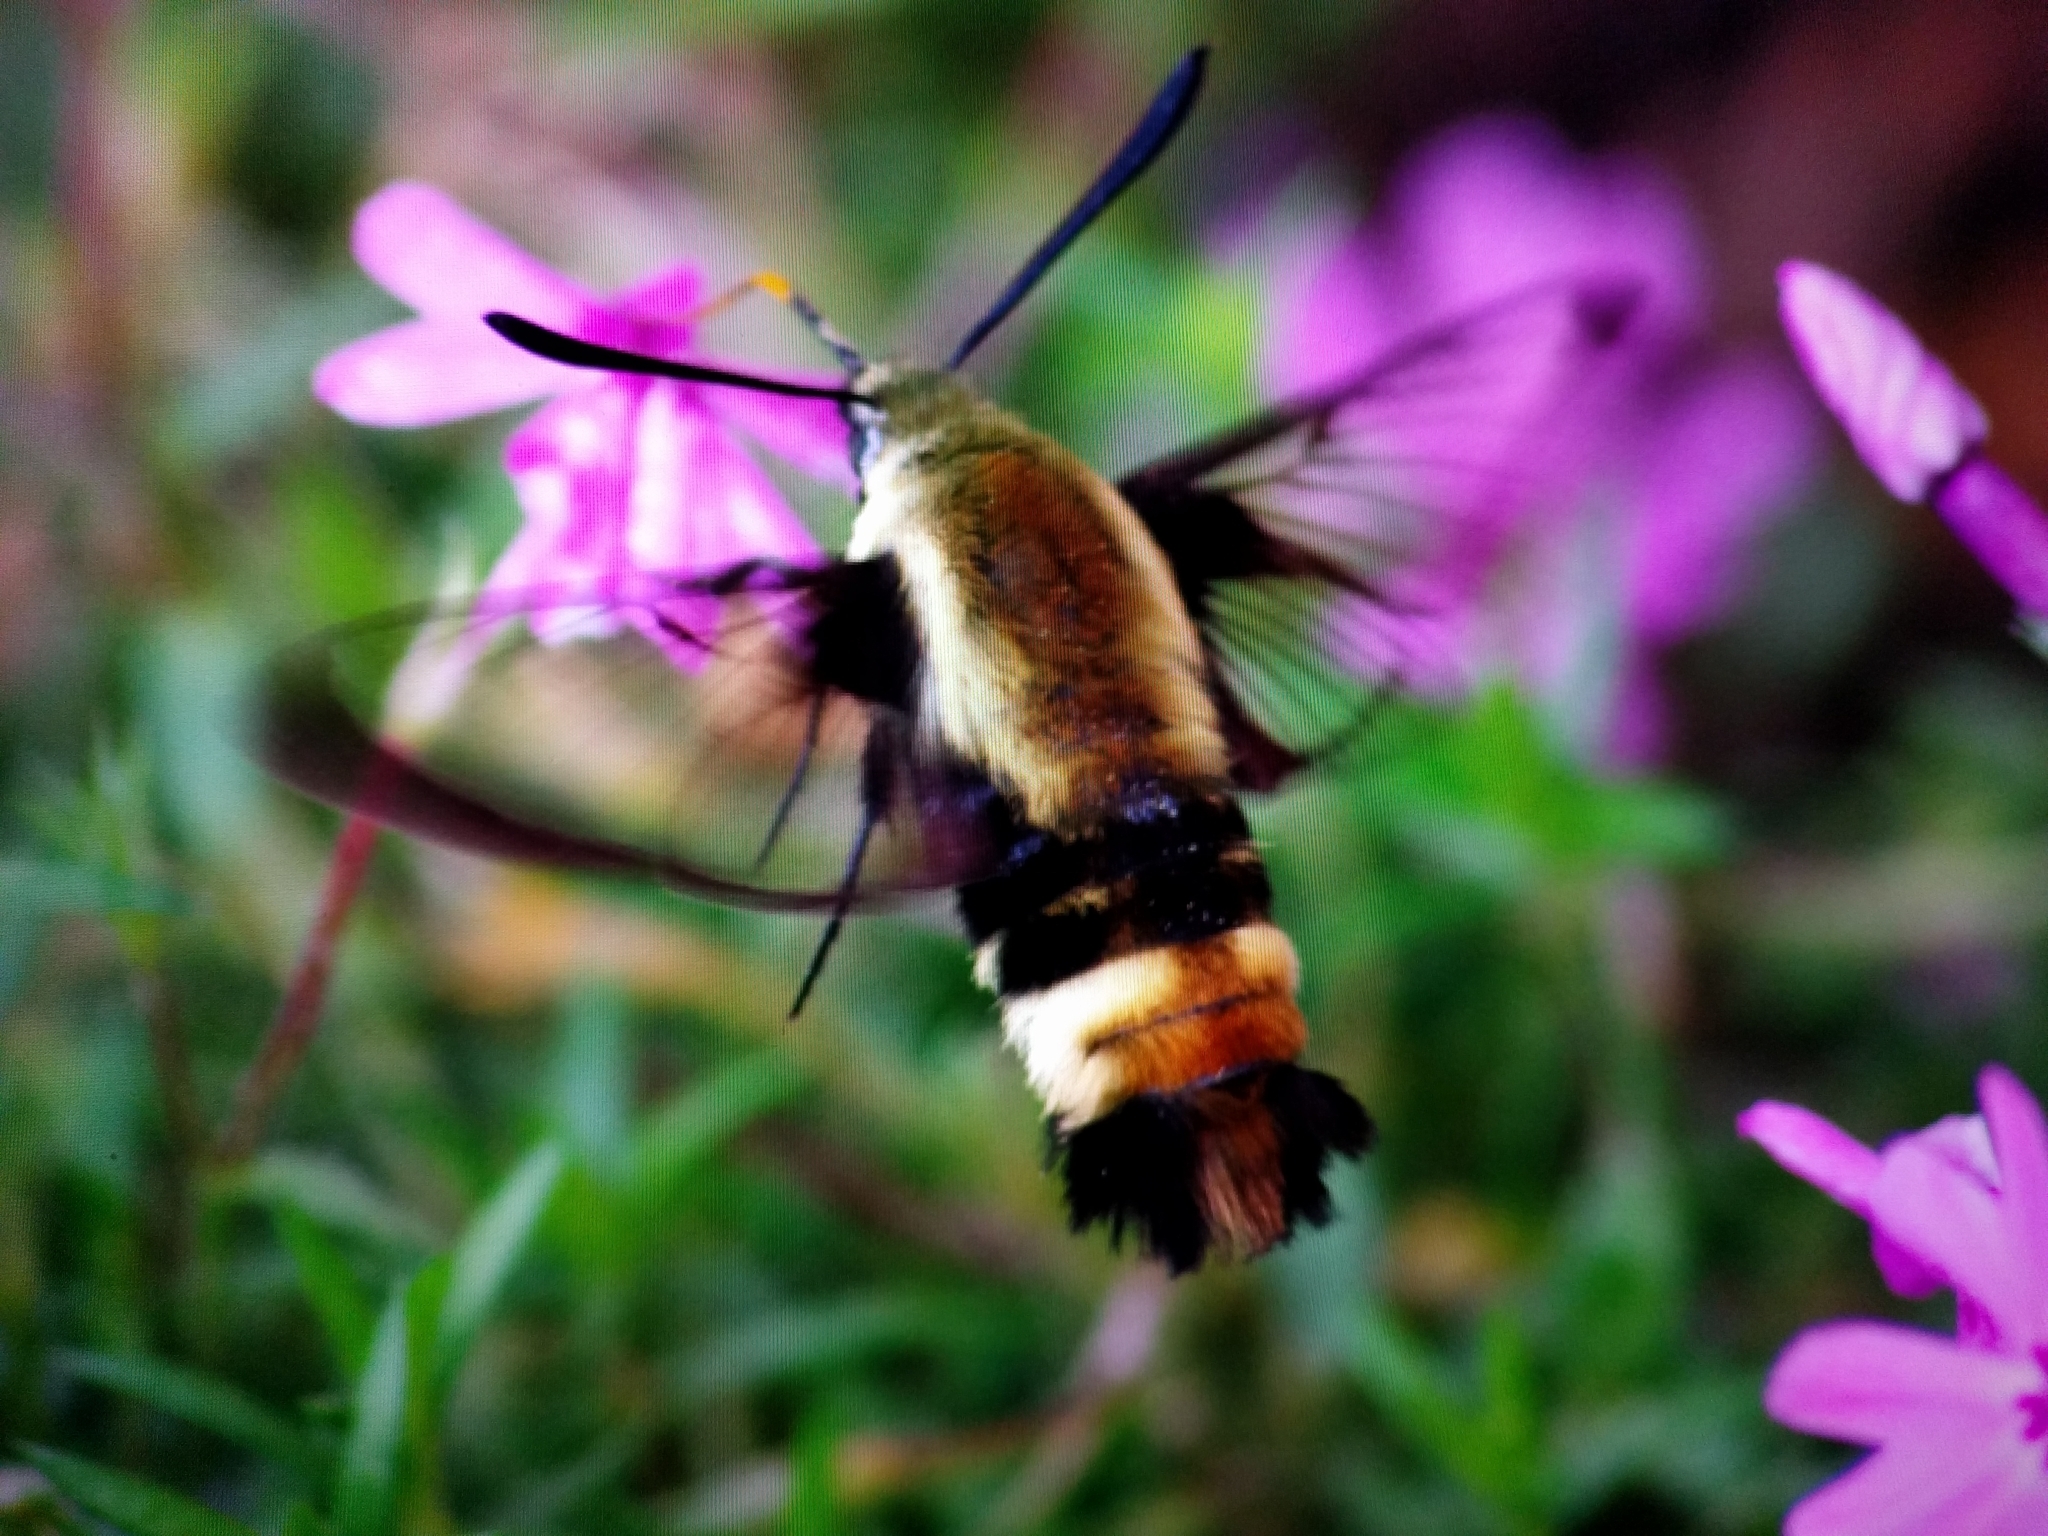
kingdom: Animalia
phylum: Arthropoda
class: Insecta
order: Lepidoptera
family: Sphingidae
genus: Hemaris
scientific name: Hemaris diffinis
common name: Bumblebee moth
